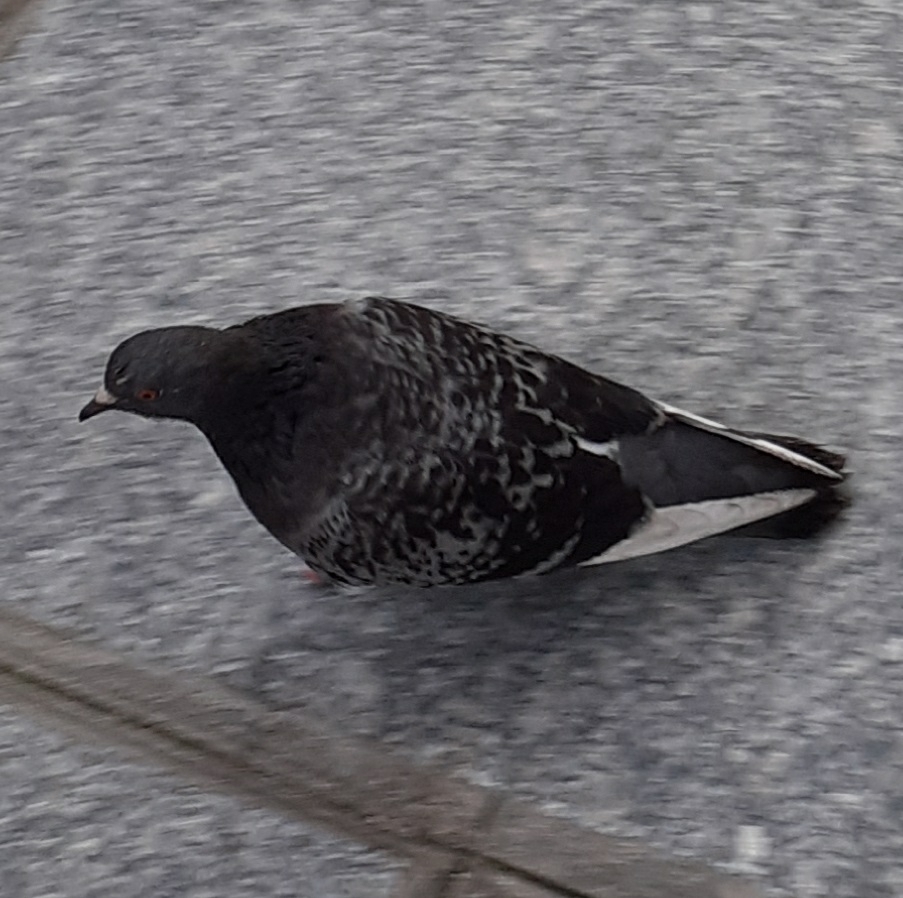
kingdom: Animalia
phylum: Chordata
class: Aves
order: Columbiformes
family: Columbidae
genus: Columba
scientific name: Columba livia
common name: Rock pigeon
